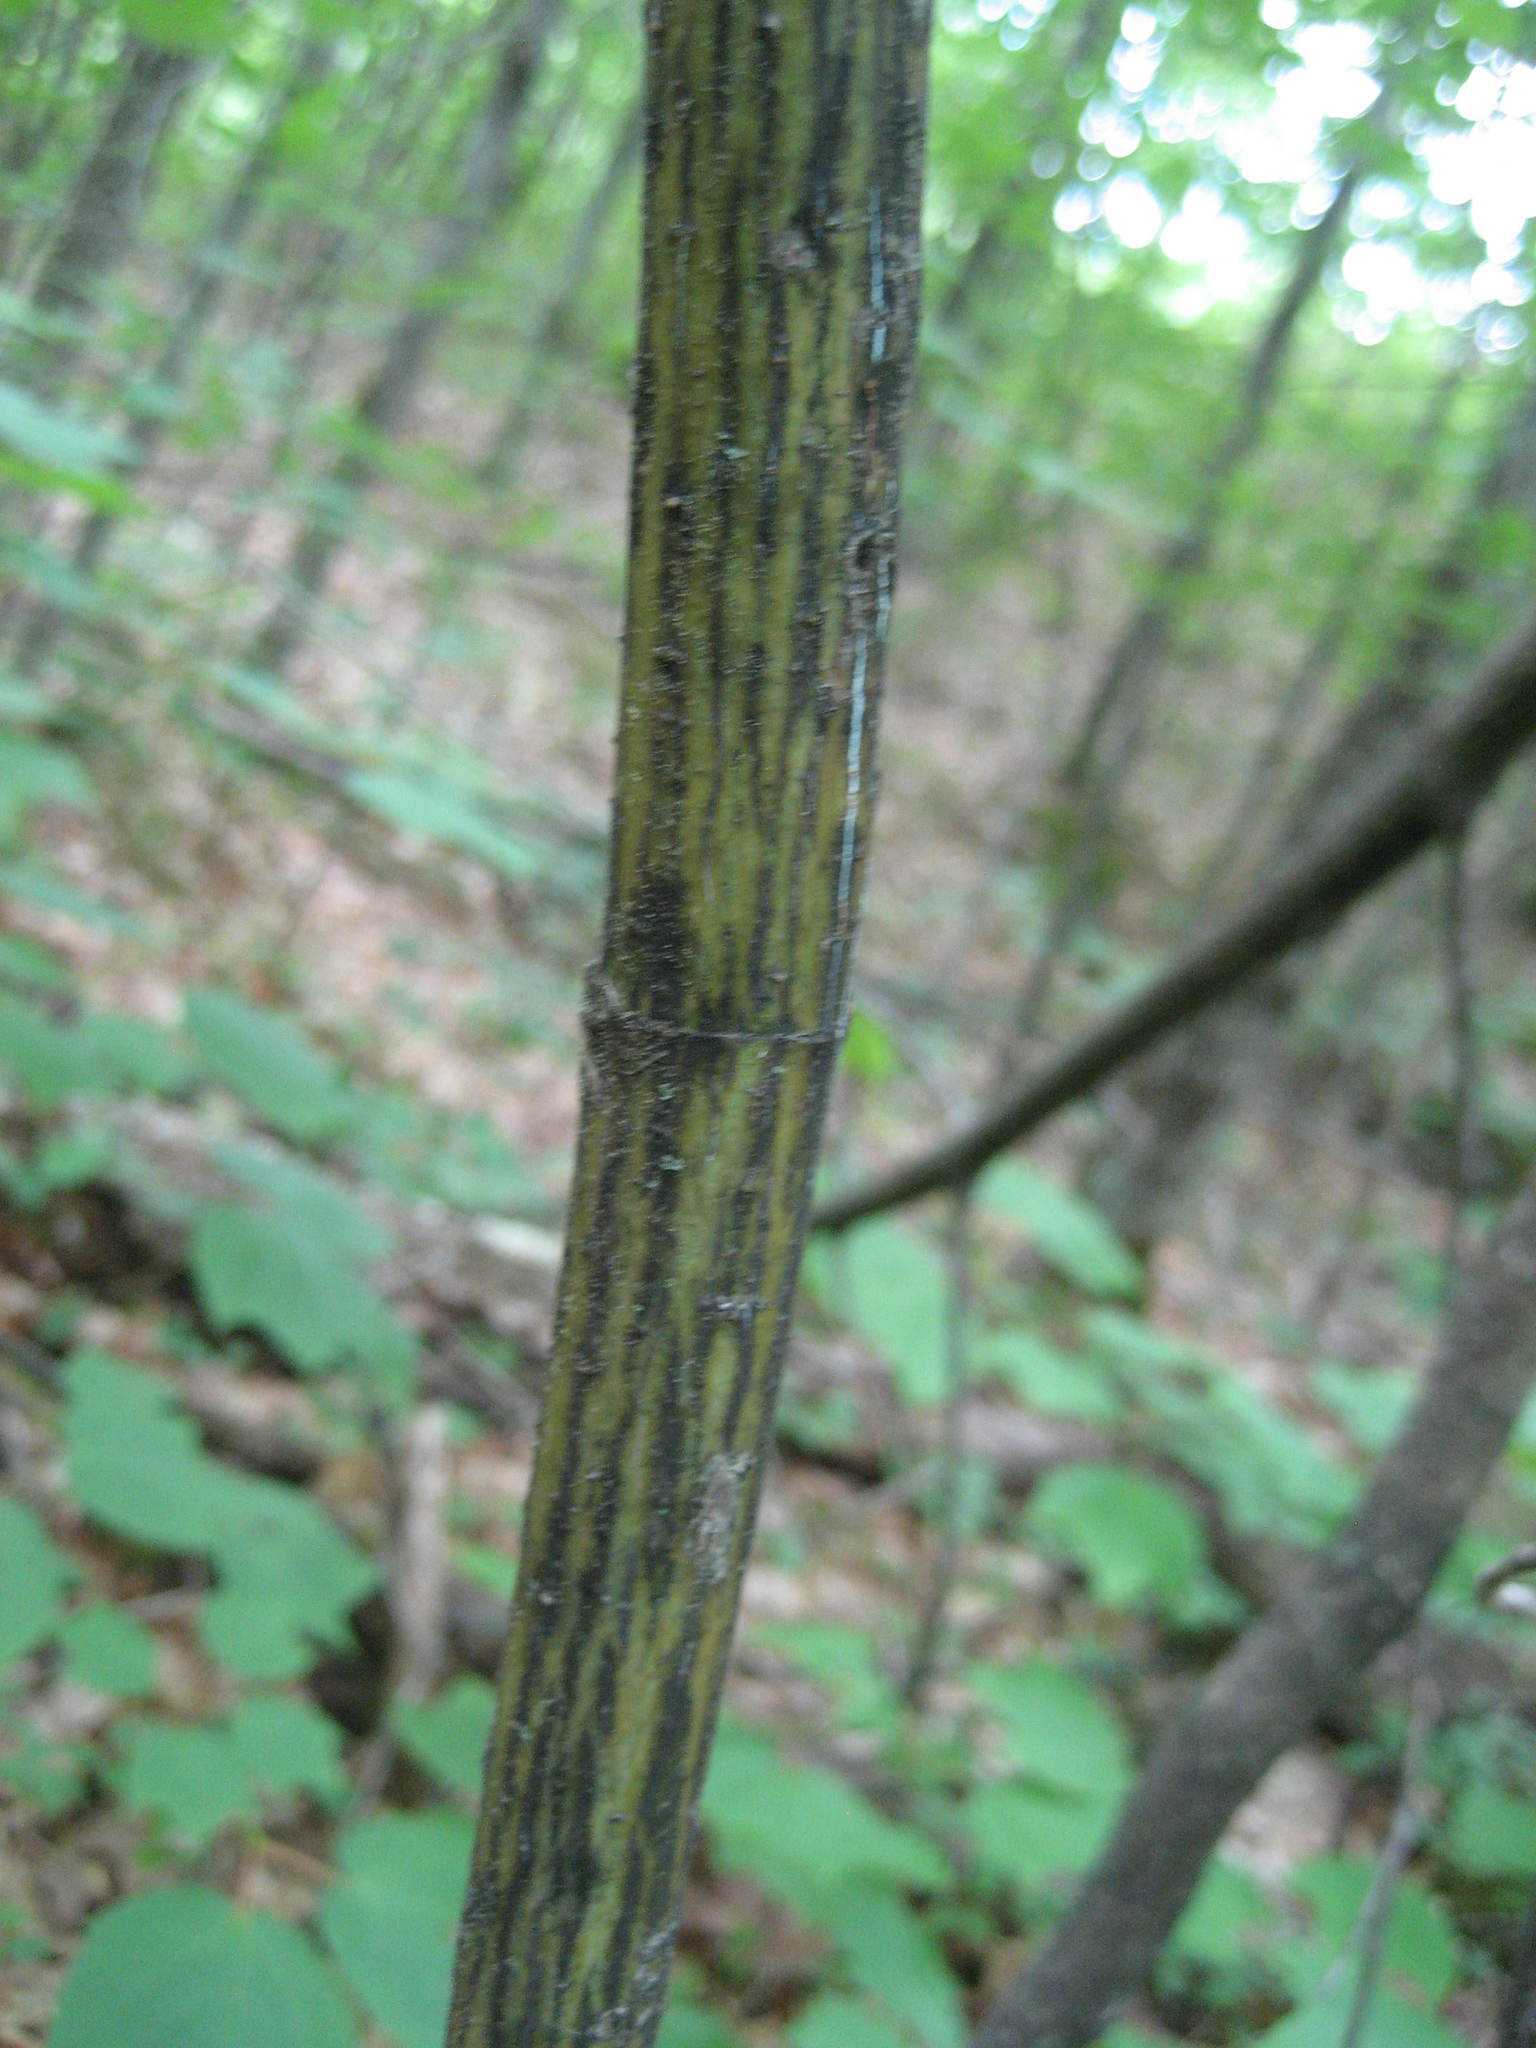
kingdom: Plantae
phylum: Tracheophyta
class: Magnoliopsida
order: Sapindales
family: Sapindaceae
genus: Acer
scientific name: Acer pensylvanicum
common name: Moosewood
